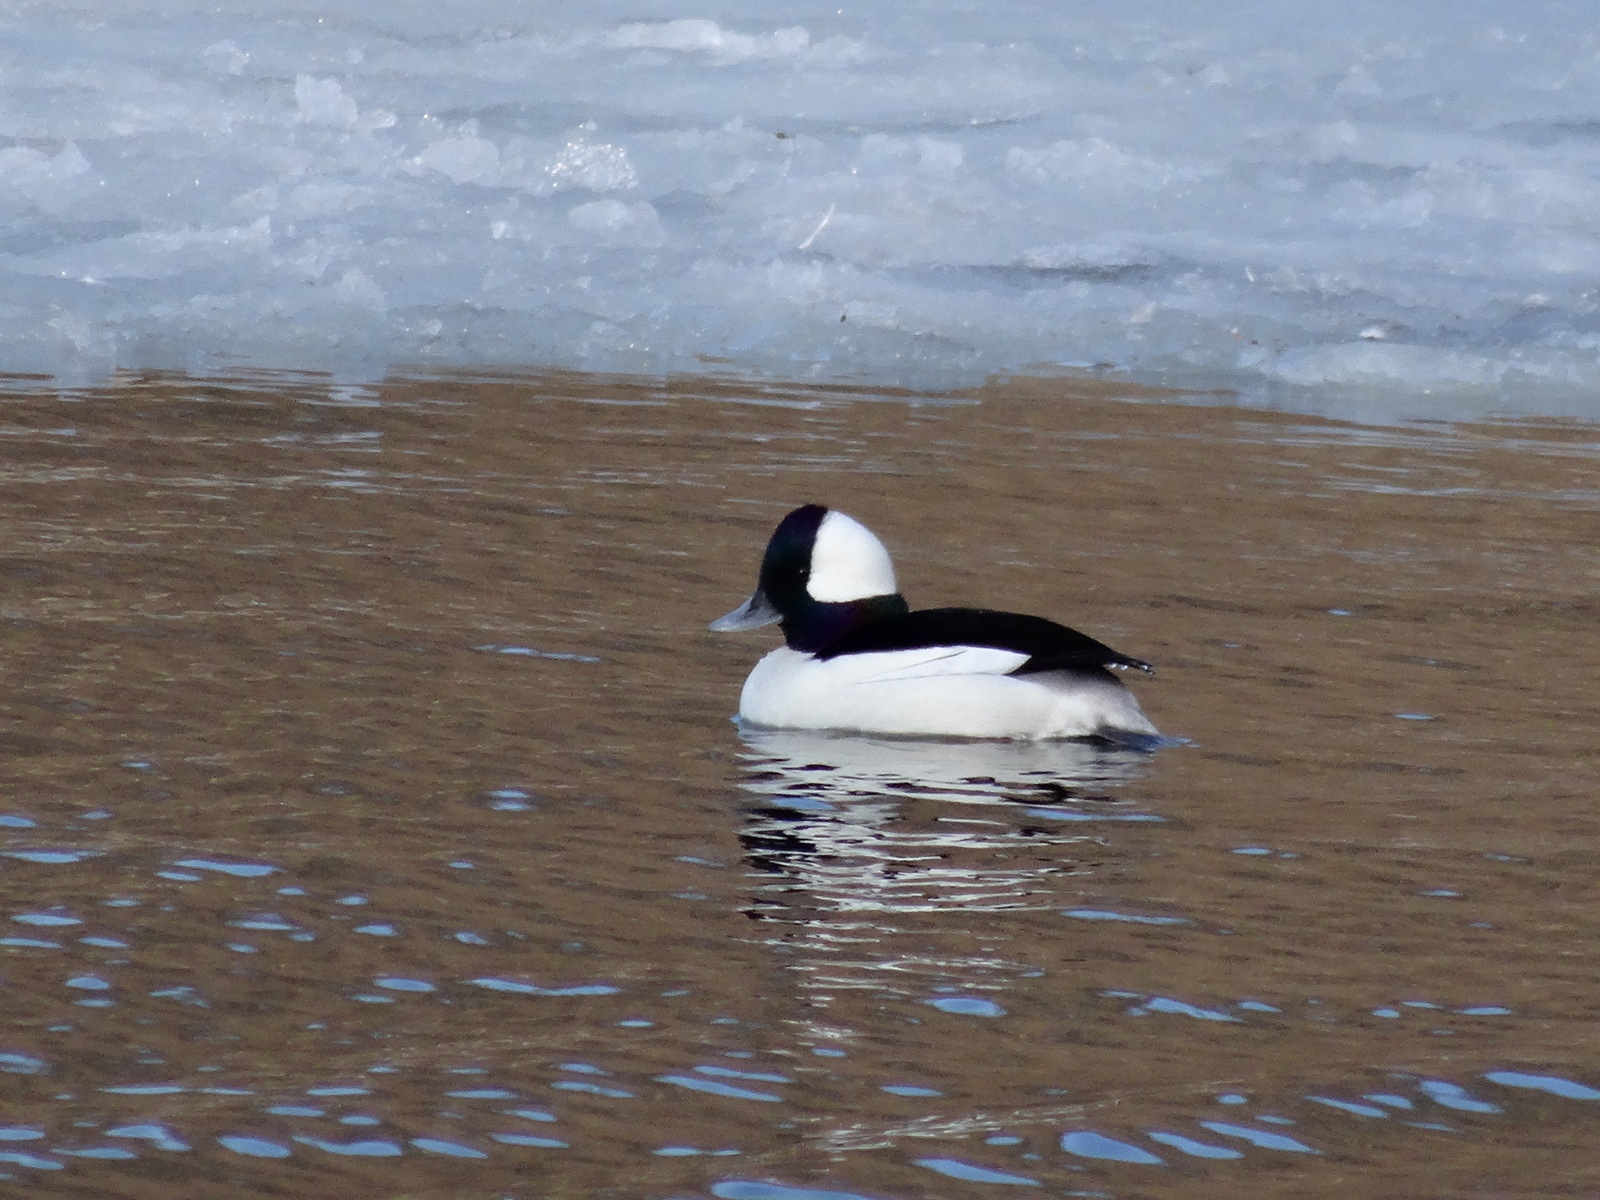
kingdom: Animalia
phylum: Chordata
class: Aves
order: Anseriformes
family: Anatidae
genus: Bucephala
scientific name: Bucephala albeola
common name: Bufflehead
